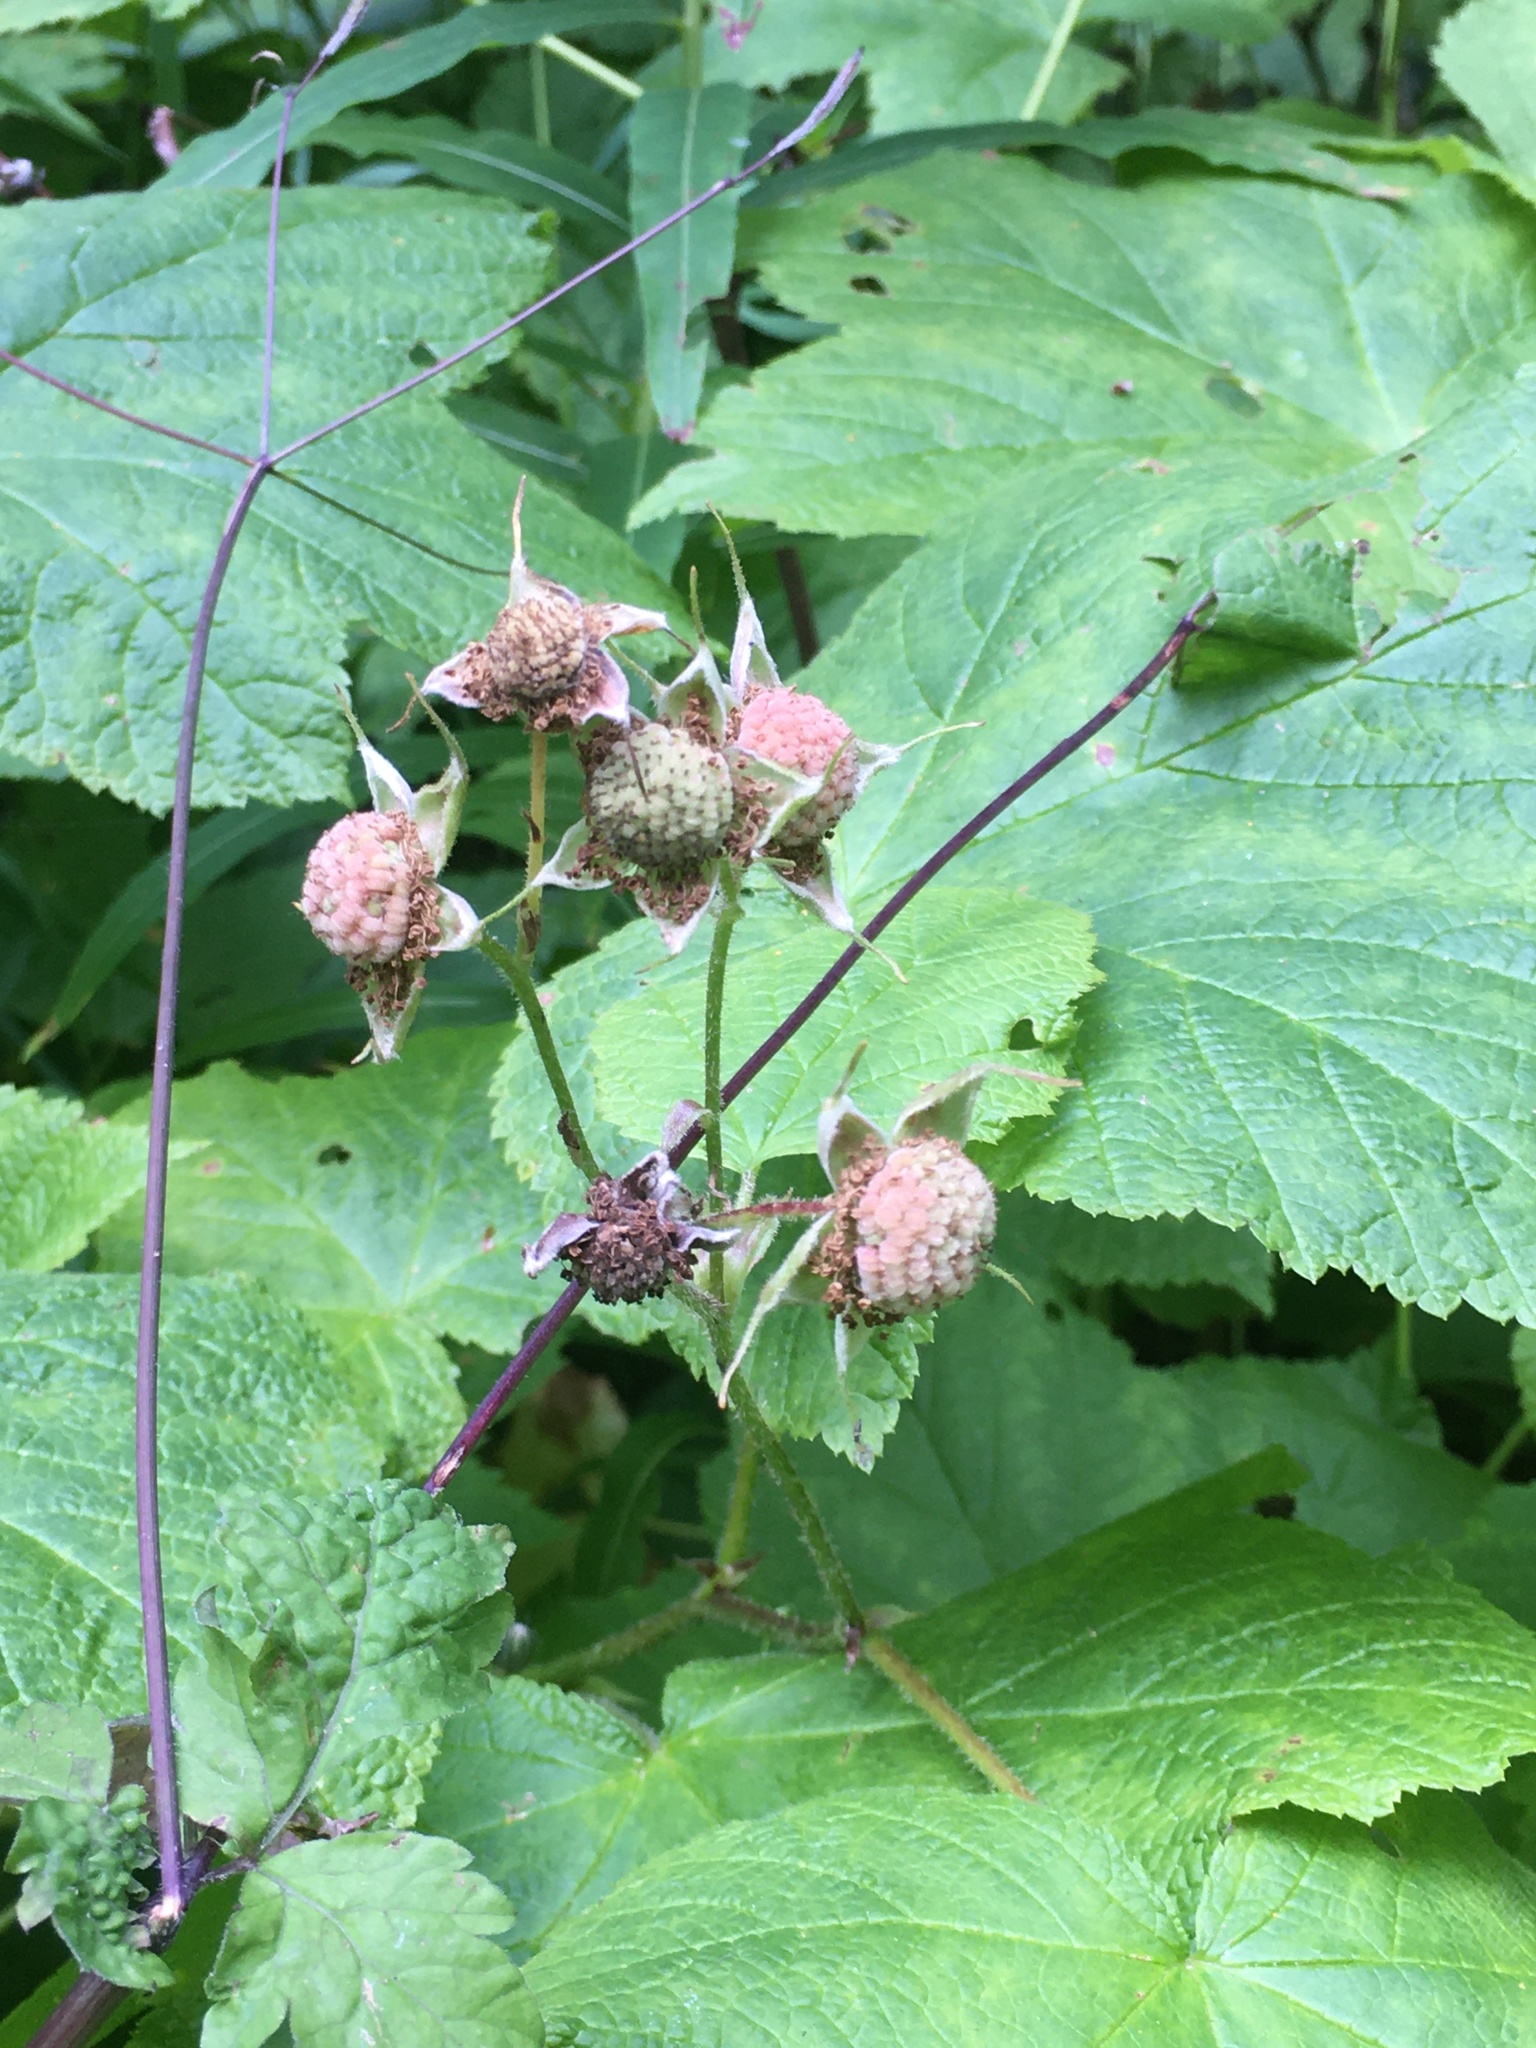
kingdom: Plantae
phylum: Tracheophyta
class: Magnoliopsida
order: Rosales
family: Rosaceae
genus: Rubus
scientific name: Rubus parviflorus
